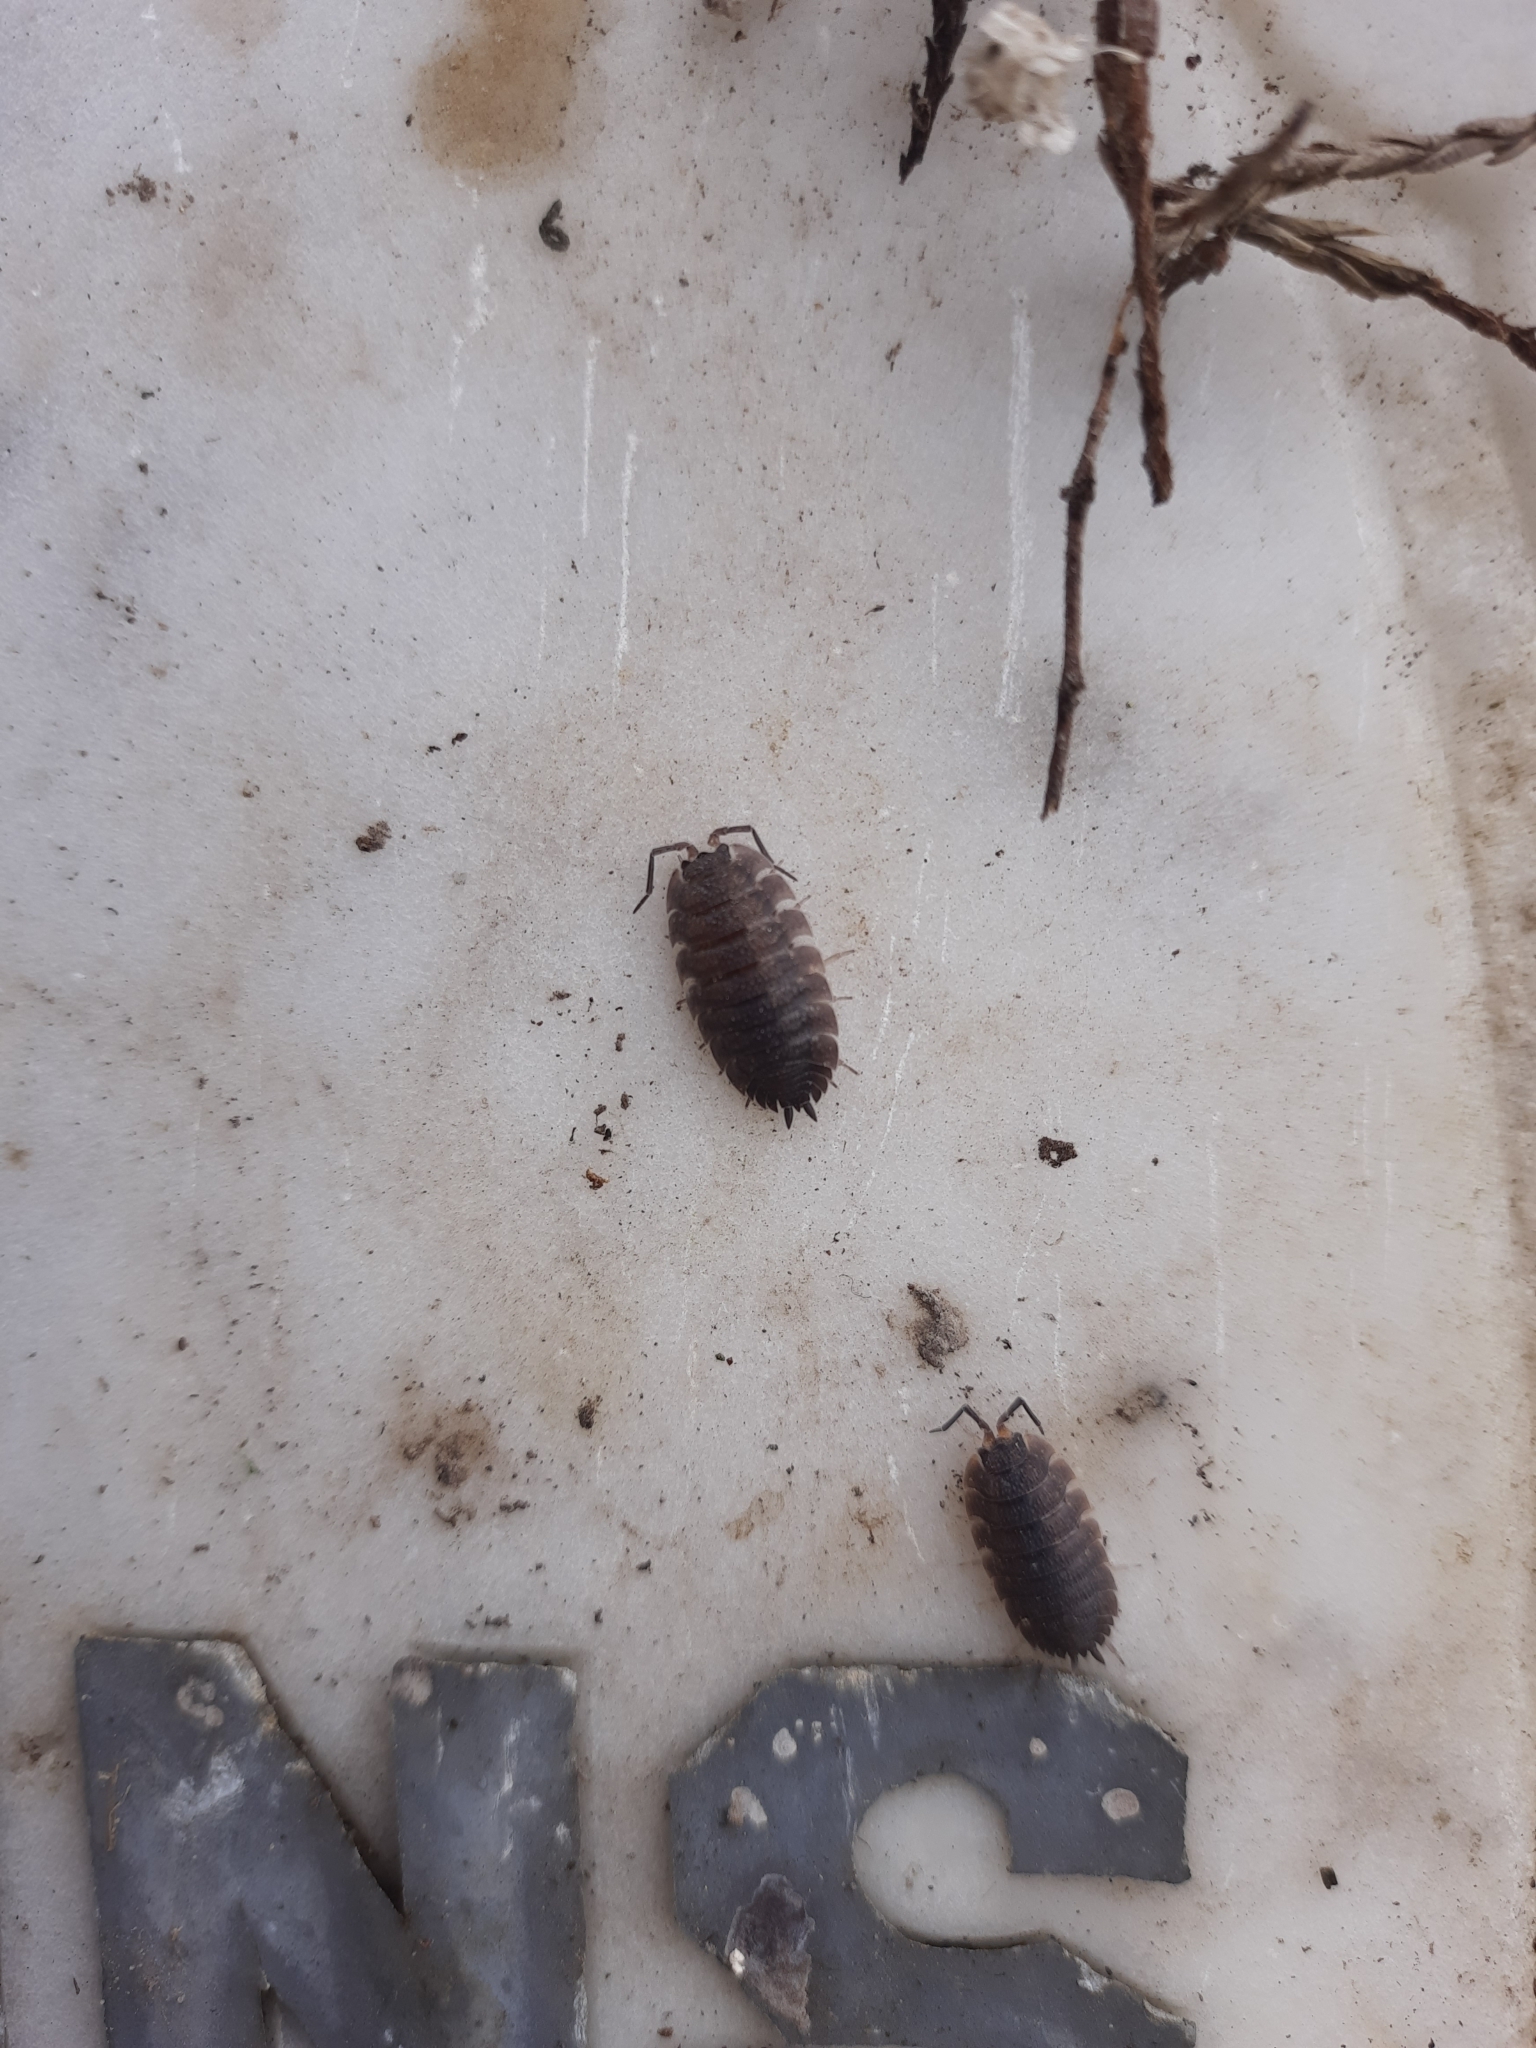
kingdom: Animalia
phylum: Arthropoda
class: Malacostraca
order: Isopoda
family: Porcellionidae
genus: Porcellio
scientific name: Porcellio scaber
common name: Common rough woodlouse
